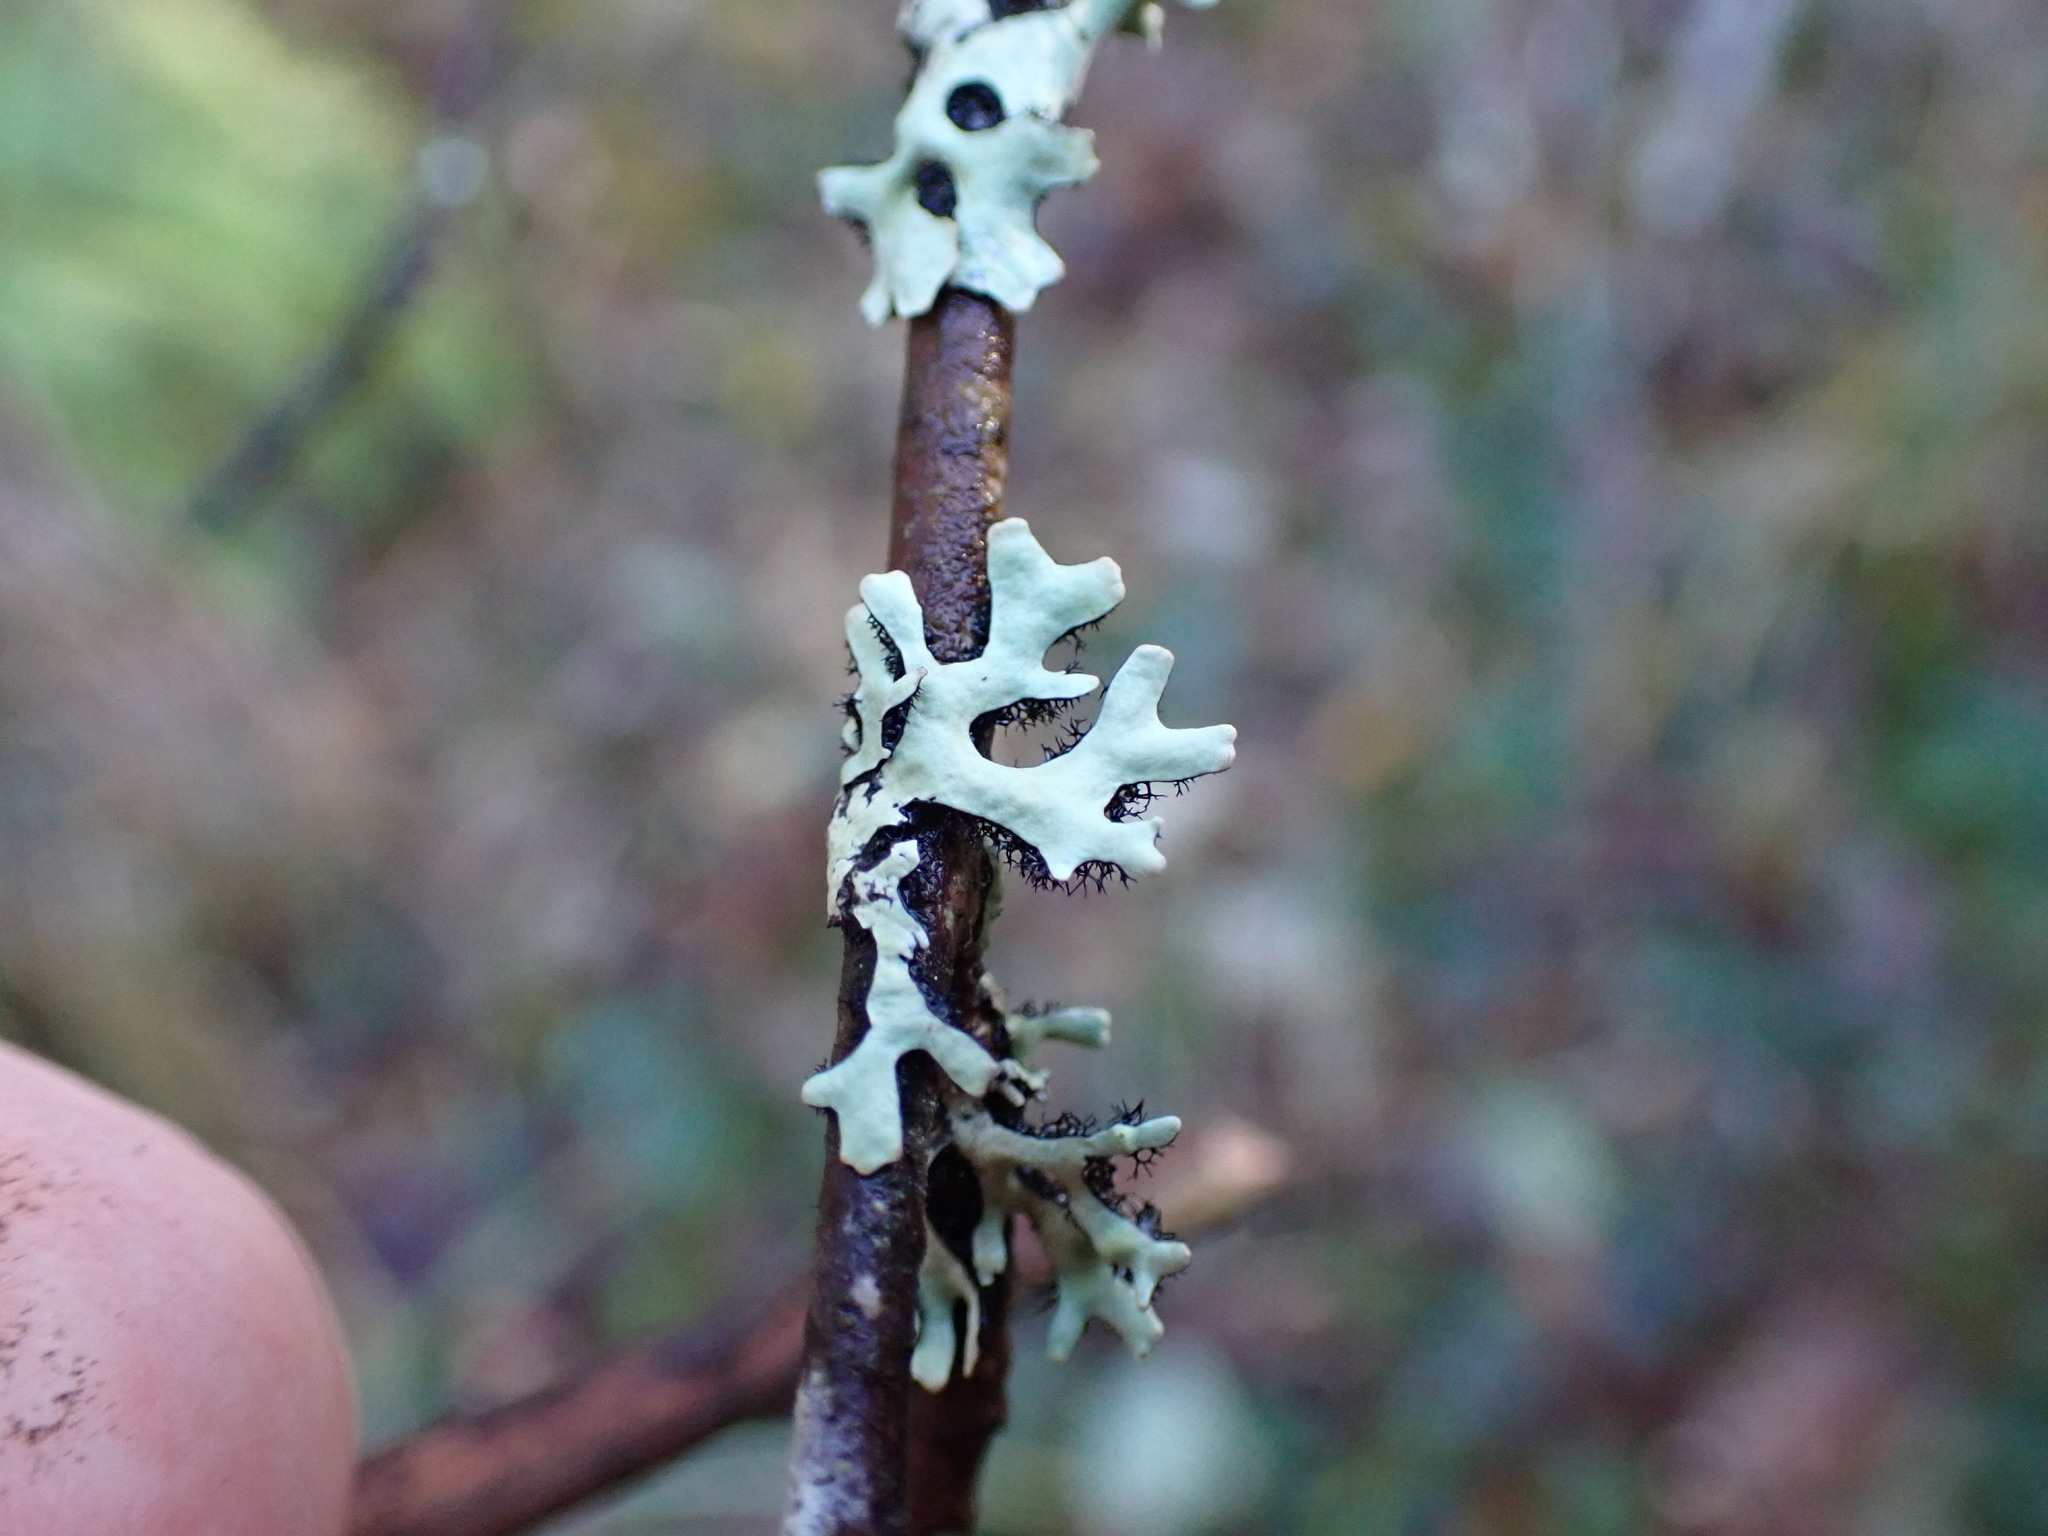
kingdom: Fungi
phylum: Ascomycota
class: Lecanoromycetes
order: Lecanorales
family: Parmeliaceae
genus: Hypotrachyna
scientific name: Hypotrachyna sinuosa
